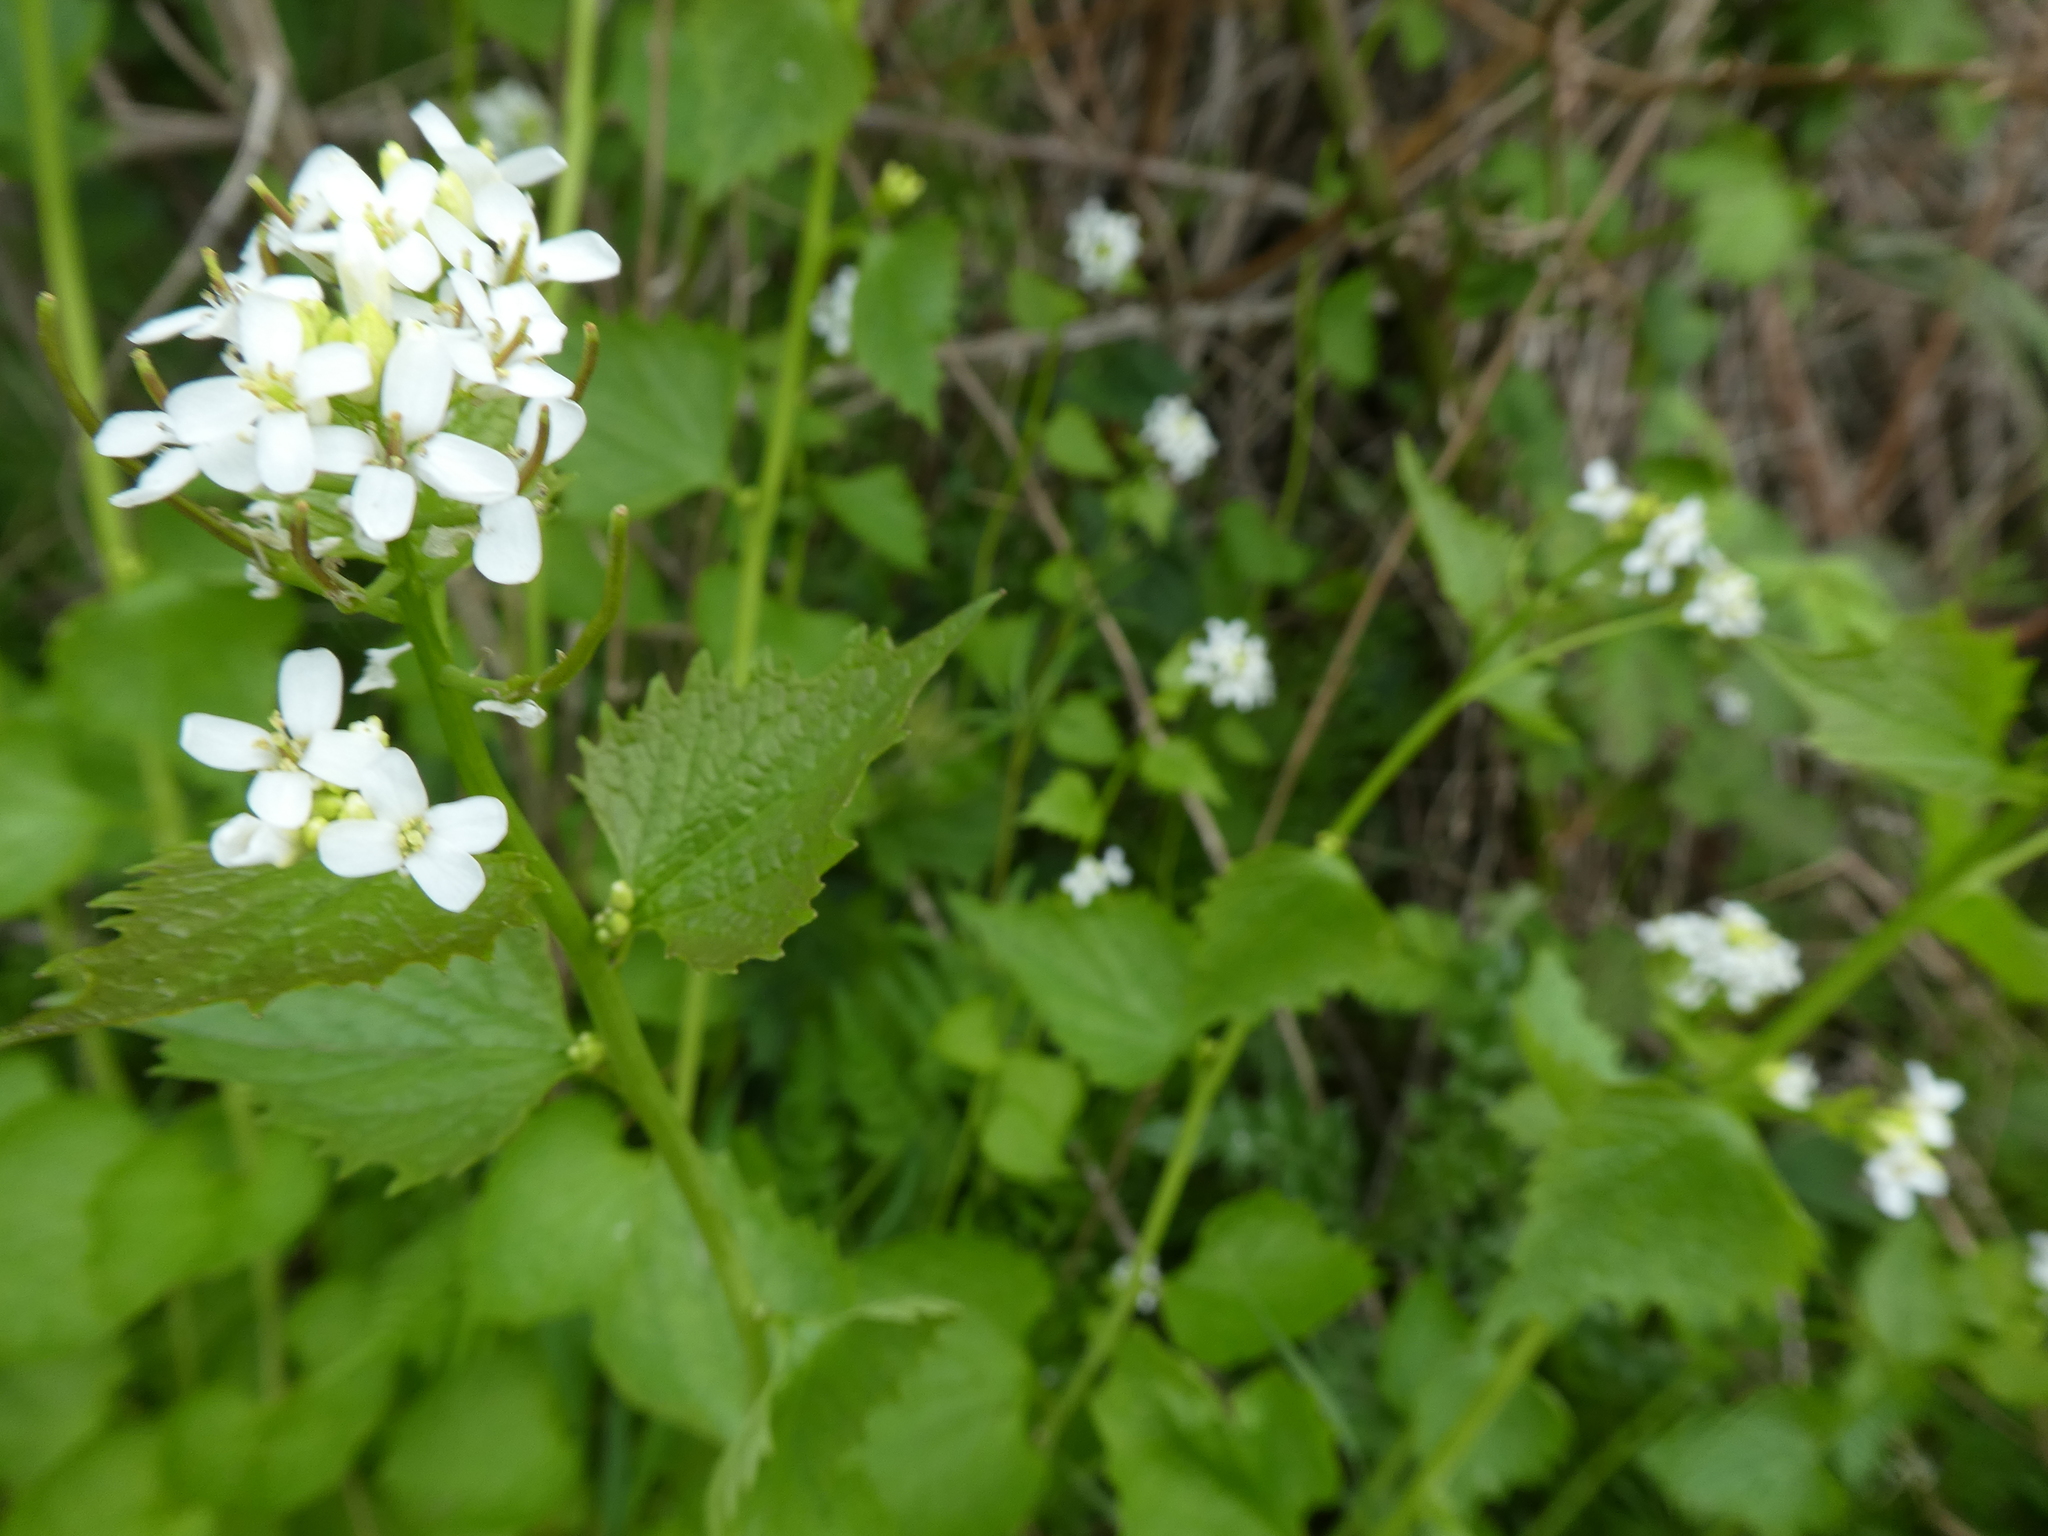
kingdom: Plantae
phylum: Tracheophyta
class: Magnoliopsida
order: Brassicales
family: Brassicaceae
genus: Alliaria
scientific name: Alliaria petiolata
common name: Garlic mustard
